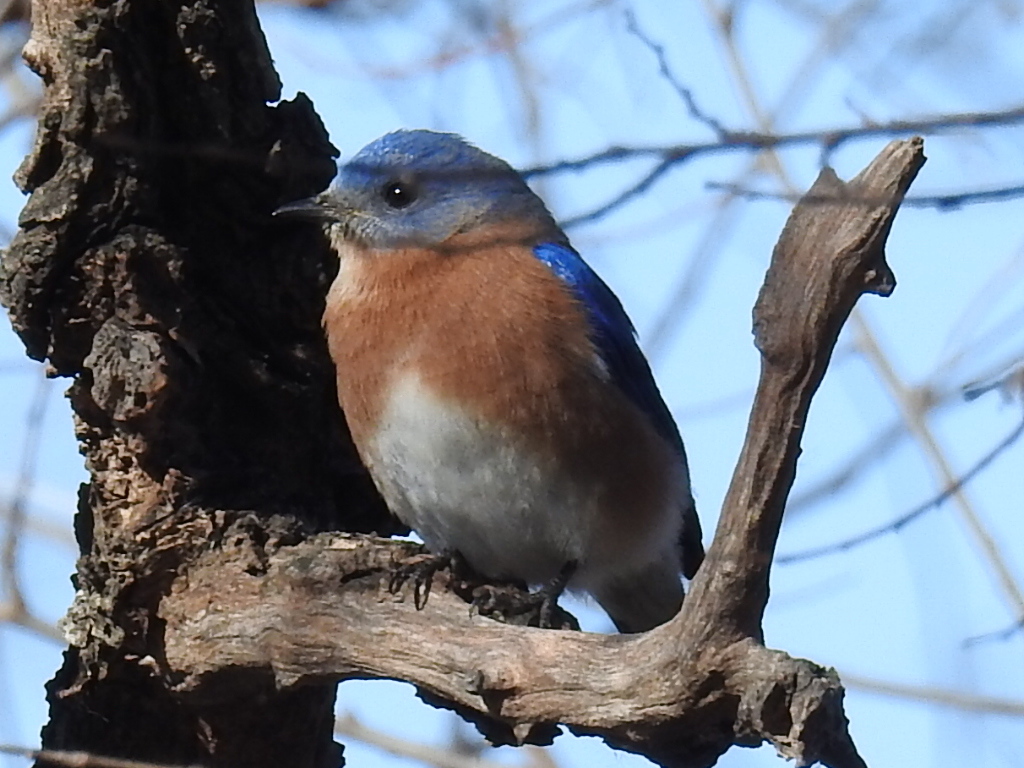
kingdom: Animalia
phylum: Chordata
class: Aves
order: Passeriformes
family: Turdidae
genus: Sialia
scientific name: Sialia sialis
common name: Eastern bluebird
